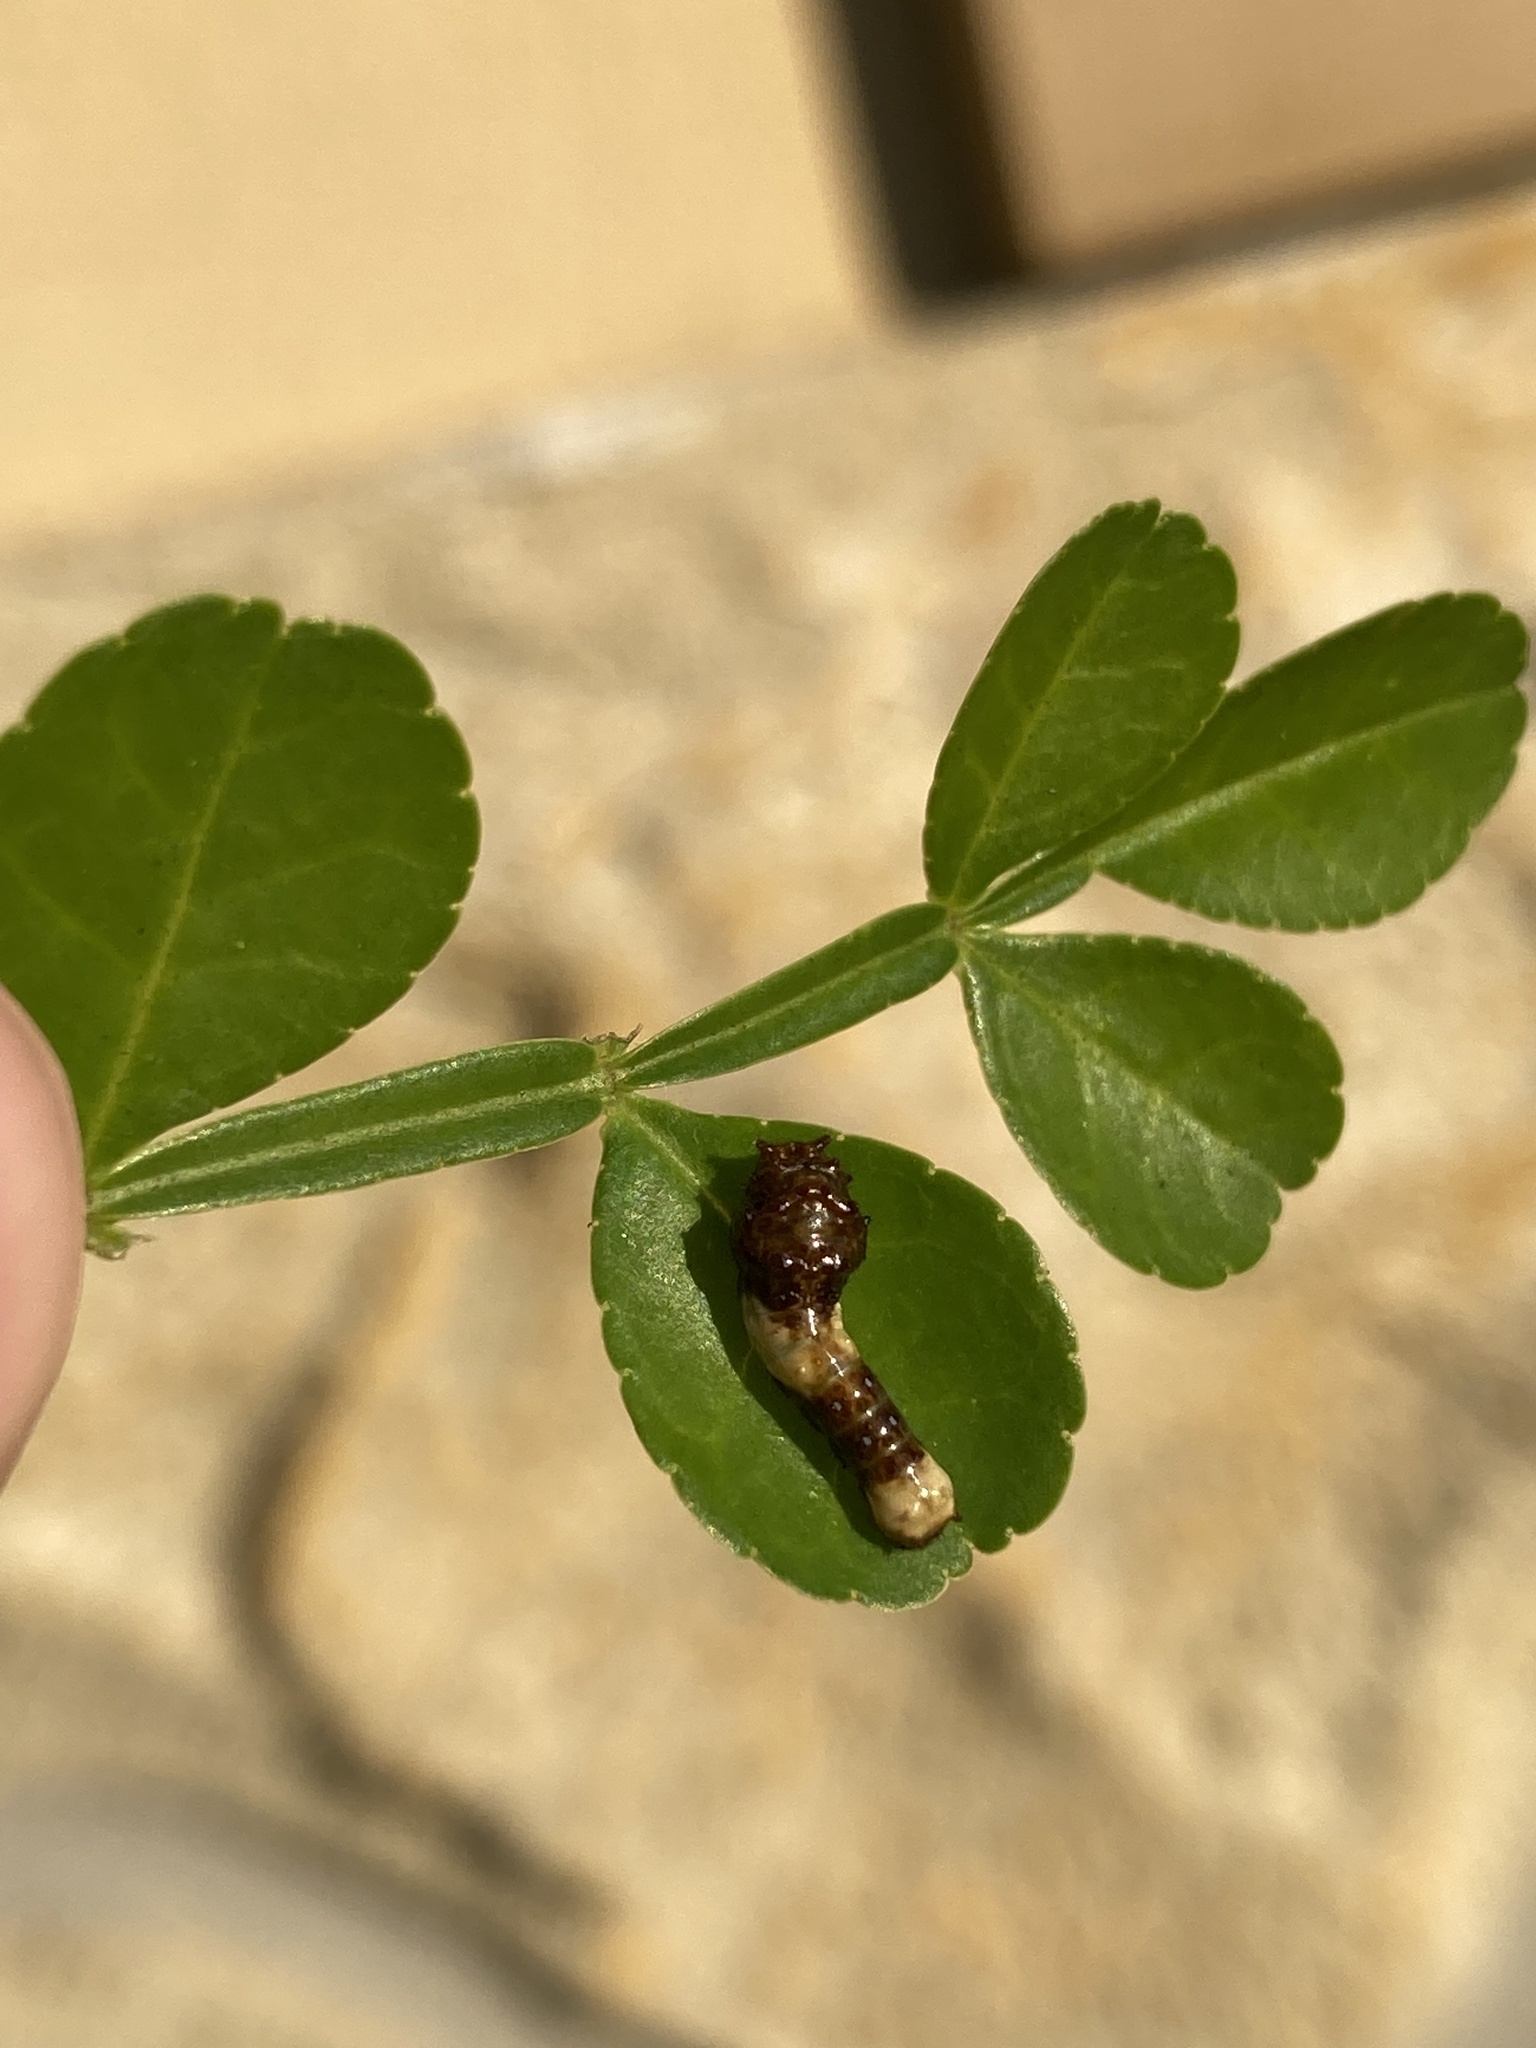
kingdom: Animalia
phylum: Arthropoda
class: Insecta
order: Lepidoptera
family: Papilionidae
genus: Papilio
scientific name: Papilio cresphontes
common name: Giant swallowtail
